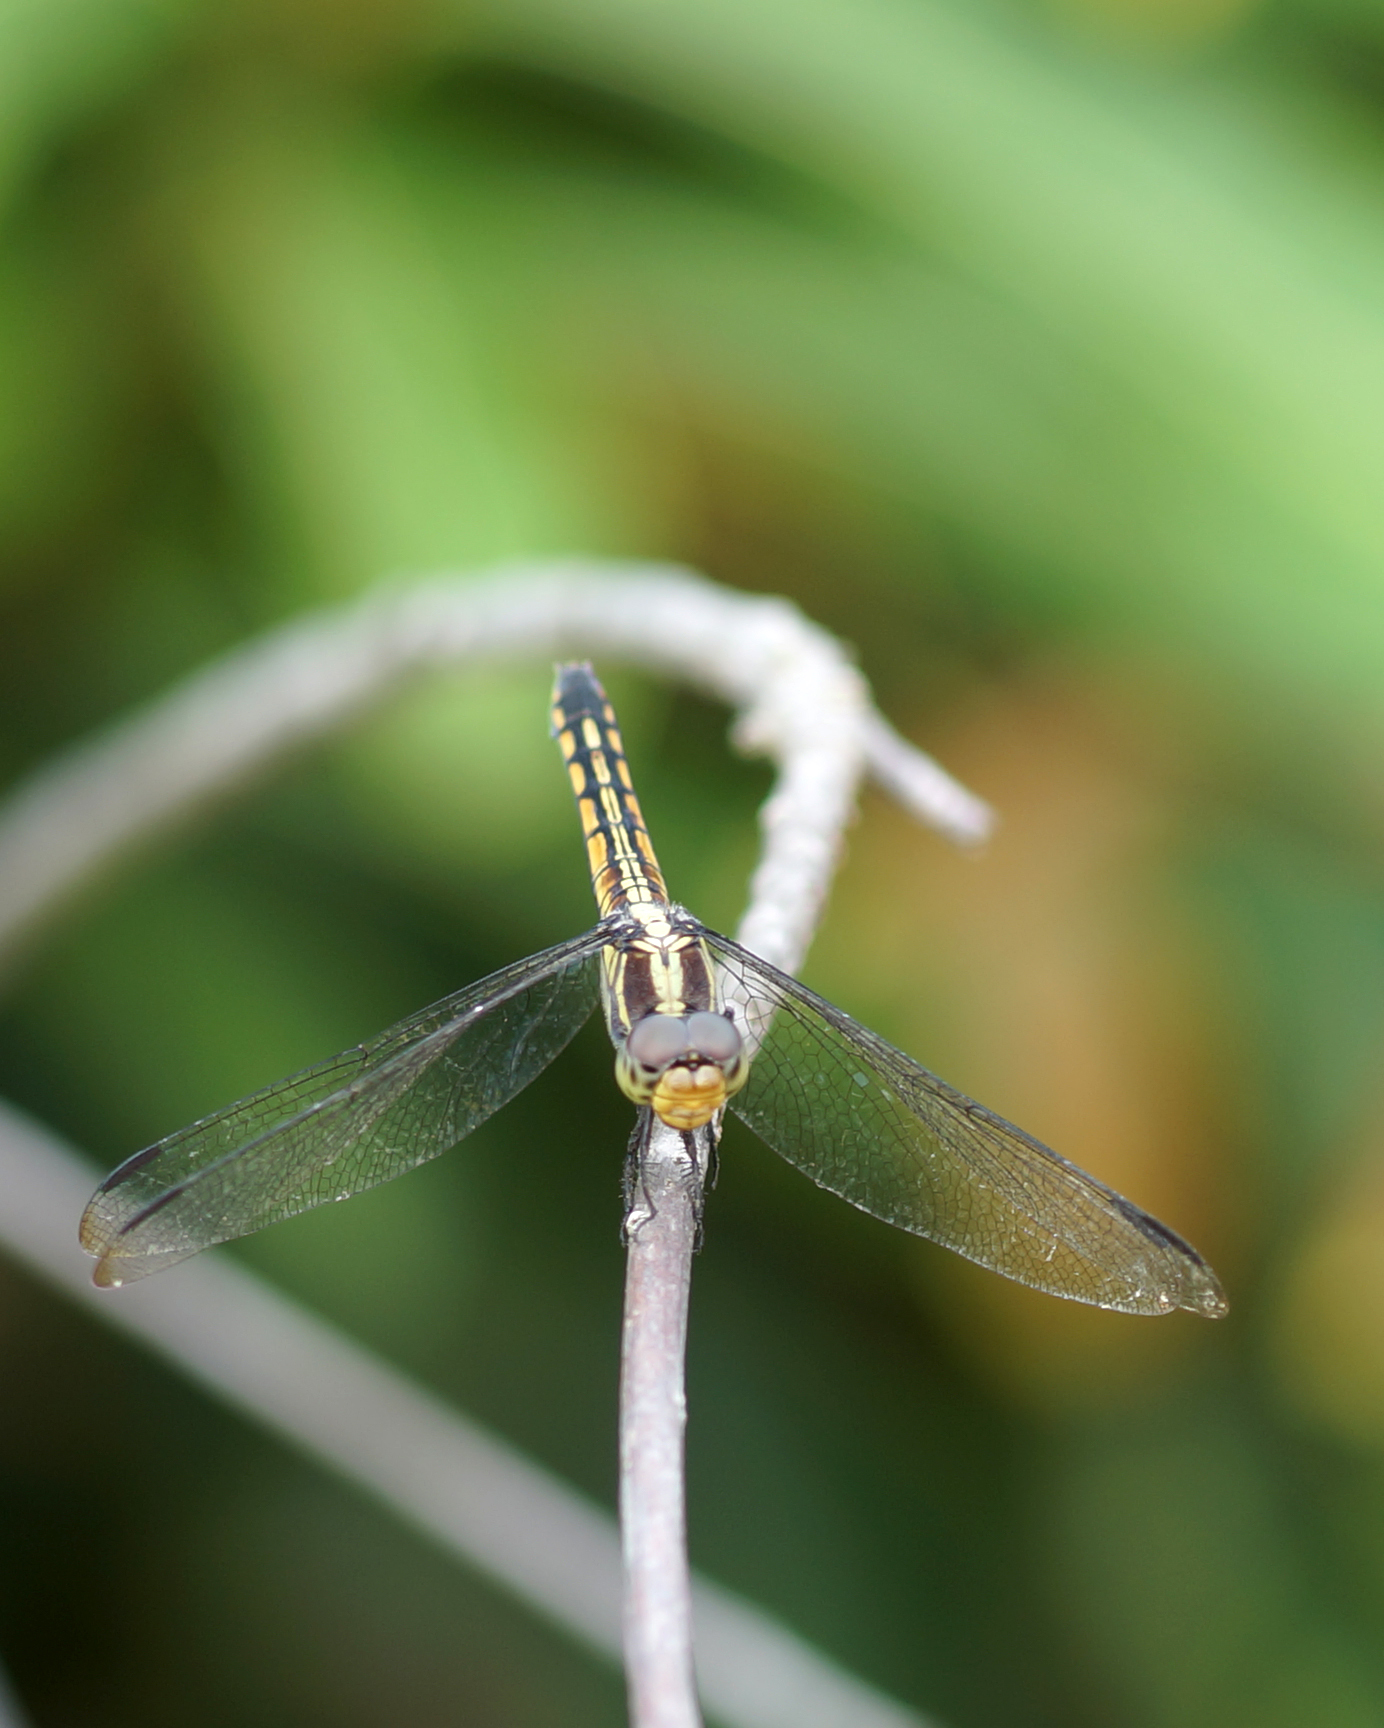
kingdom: Animalia
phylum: Arthropoda
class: Insecta
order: Odonata
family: Libellulidae
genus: Potamarcha
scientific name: Potamarcha congener
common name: Blue chaser
